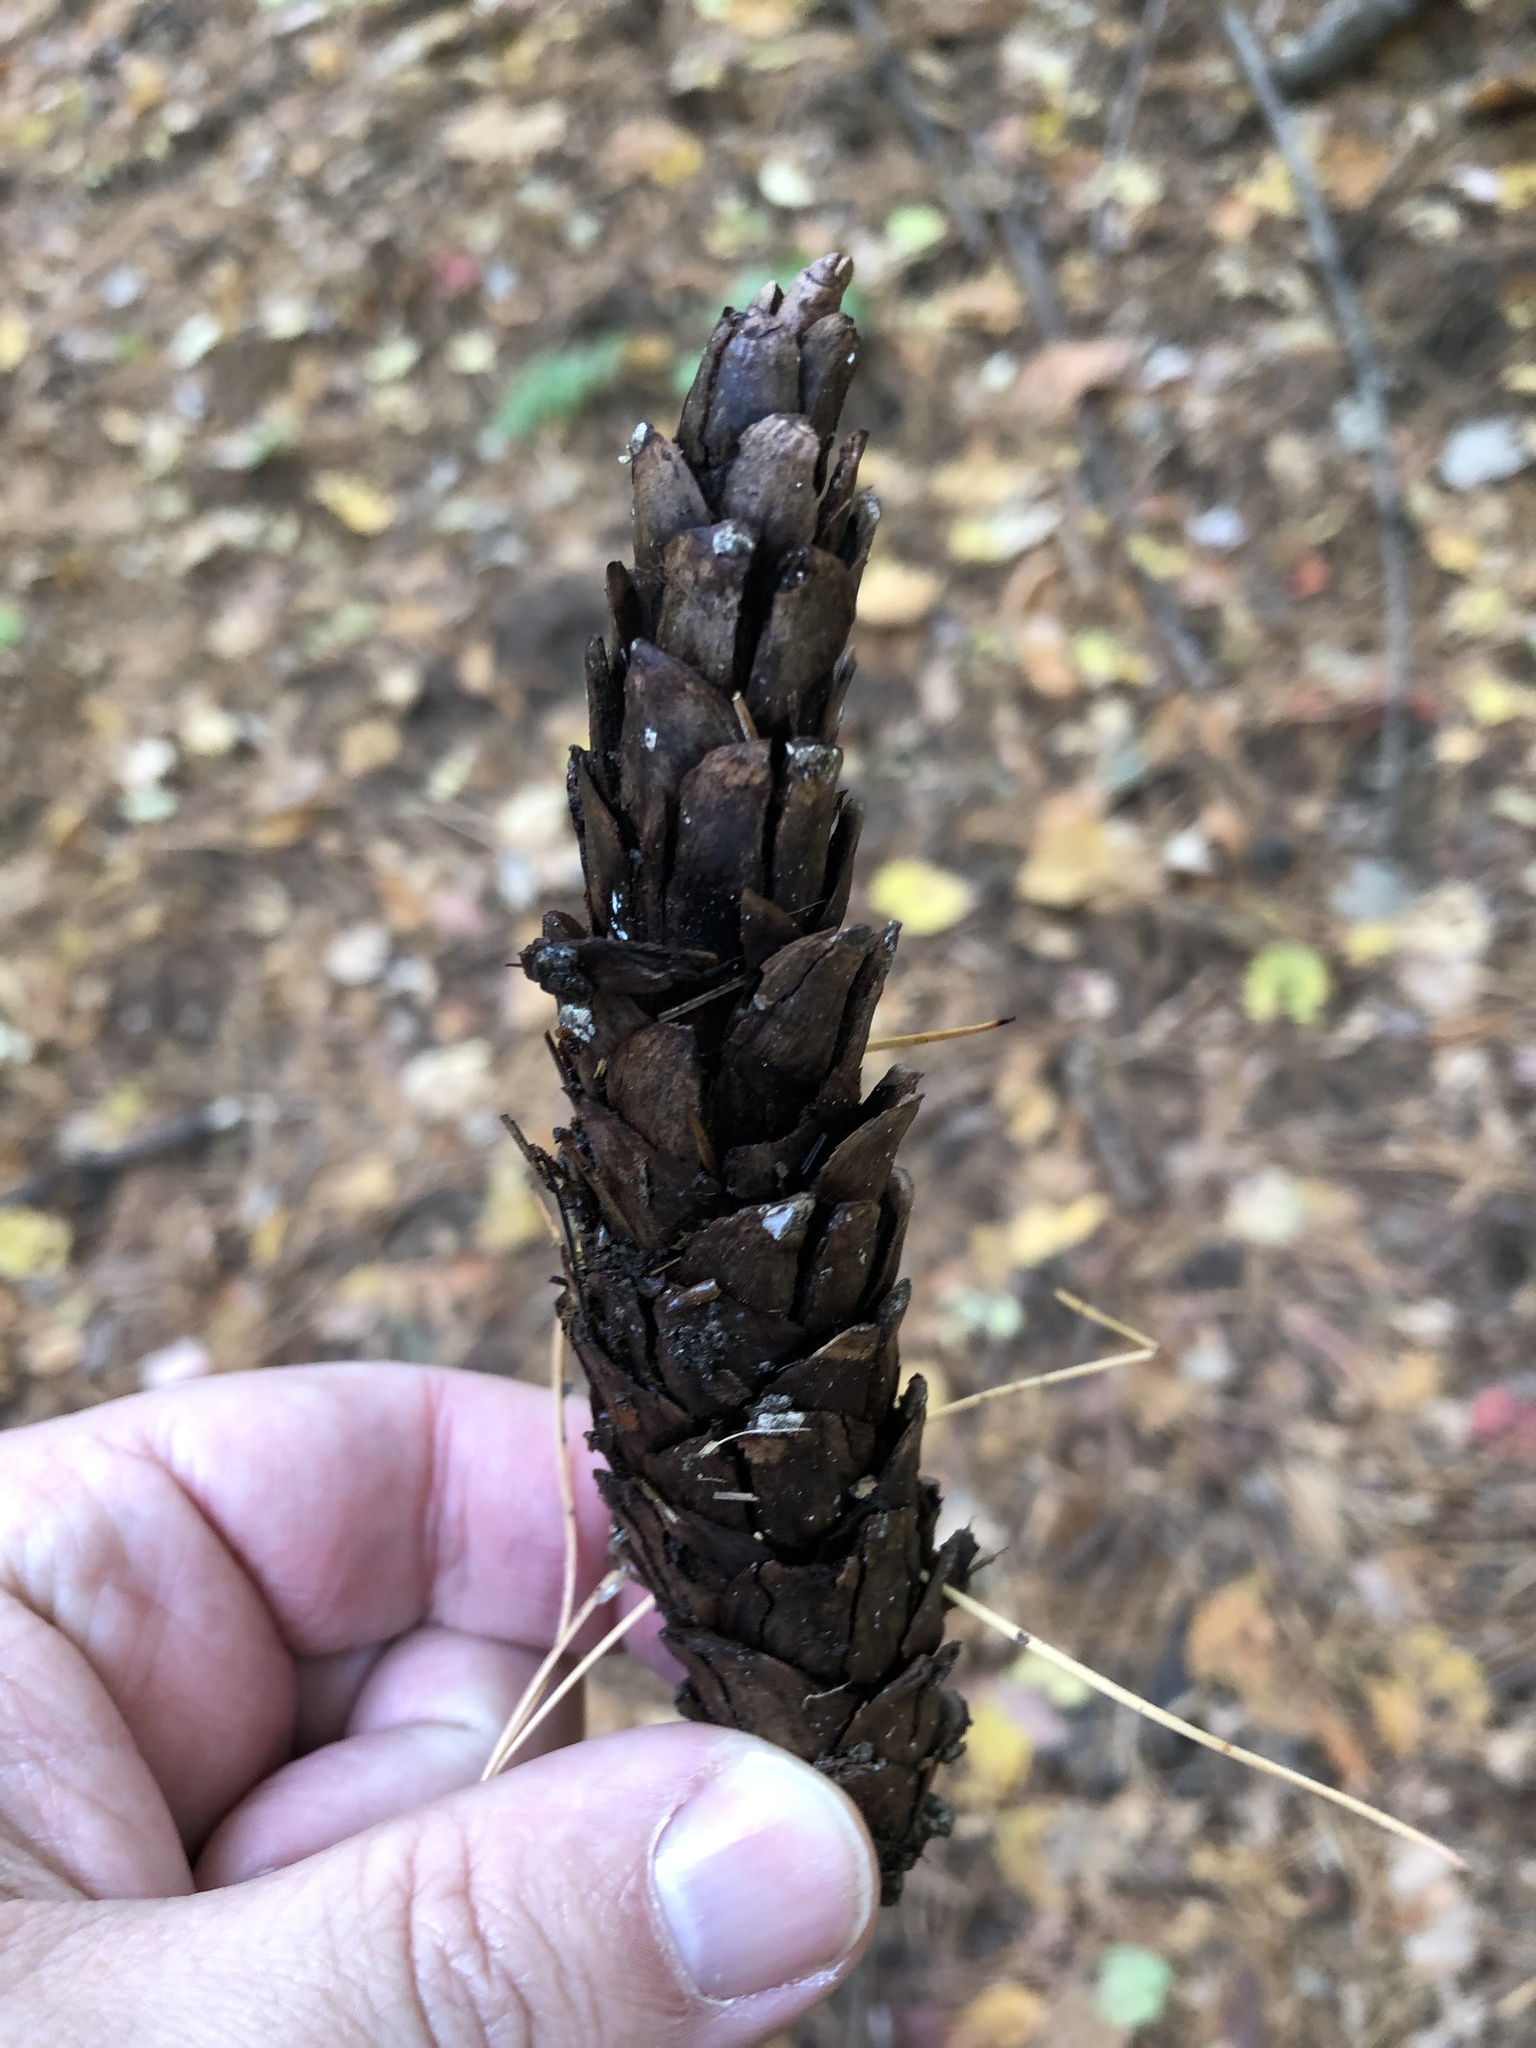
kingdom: Plantae
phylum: Tracheophyta
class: Pinopsida
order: Pinales
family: Pinaceae
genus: Pinus
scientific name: Pinus strobus
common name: Weymouth pine
